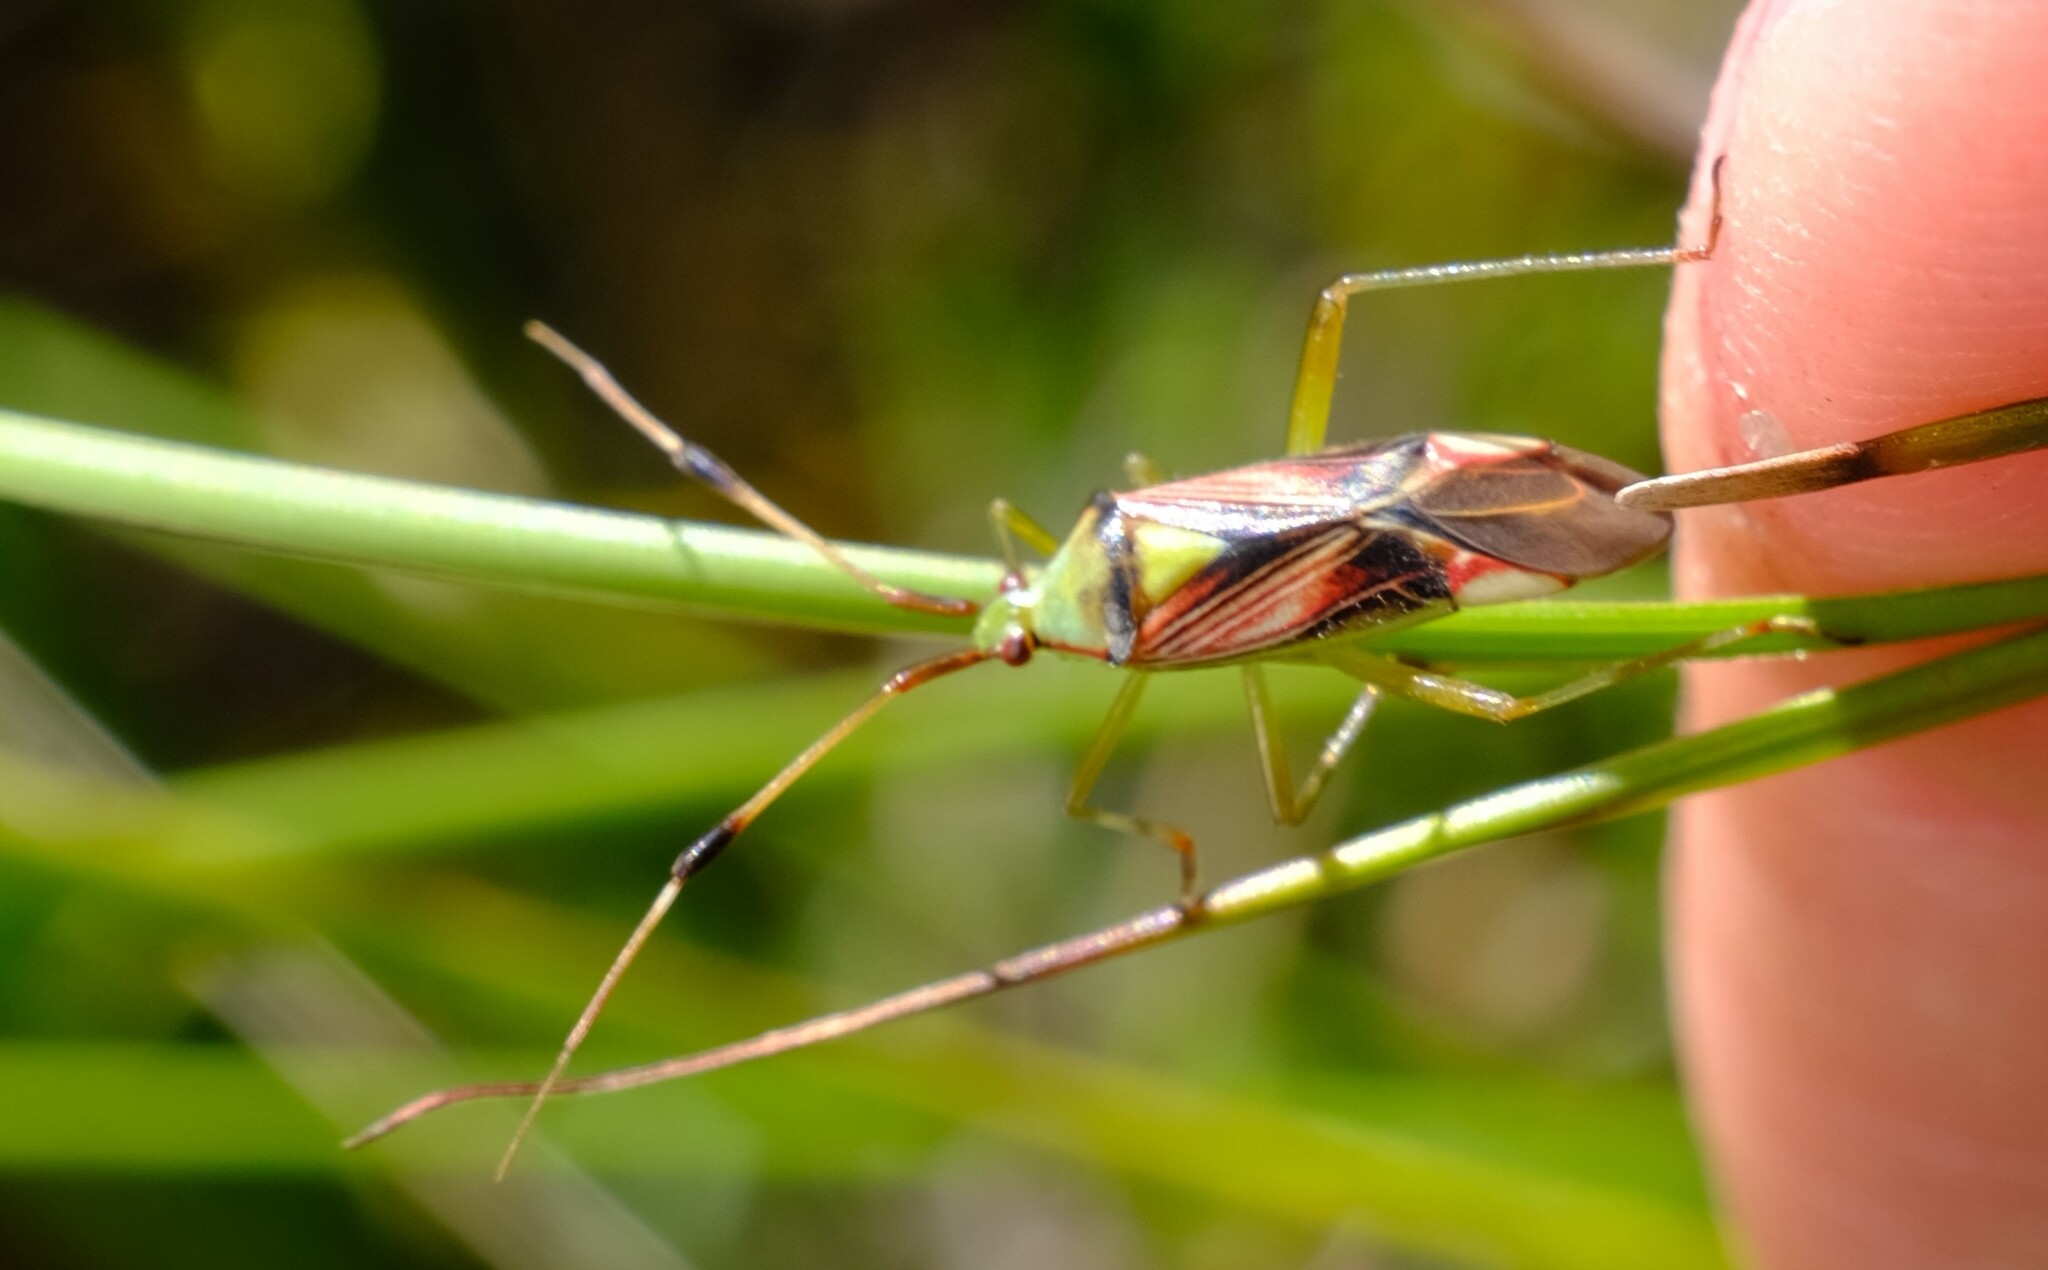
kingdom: Animalia
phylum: Arthropoda
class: Insecta
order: Hemiptera
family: Miridae
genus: Pseudopantilius
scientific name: Pseudopantilius australis
